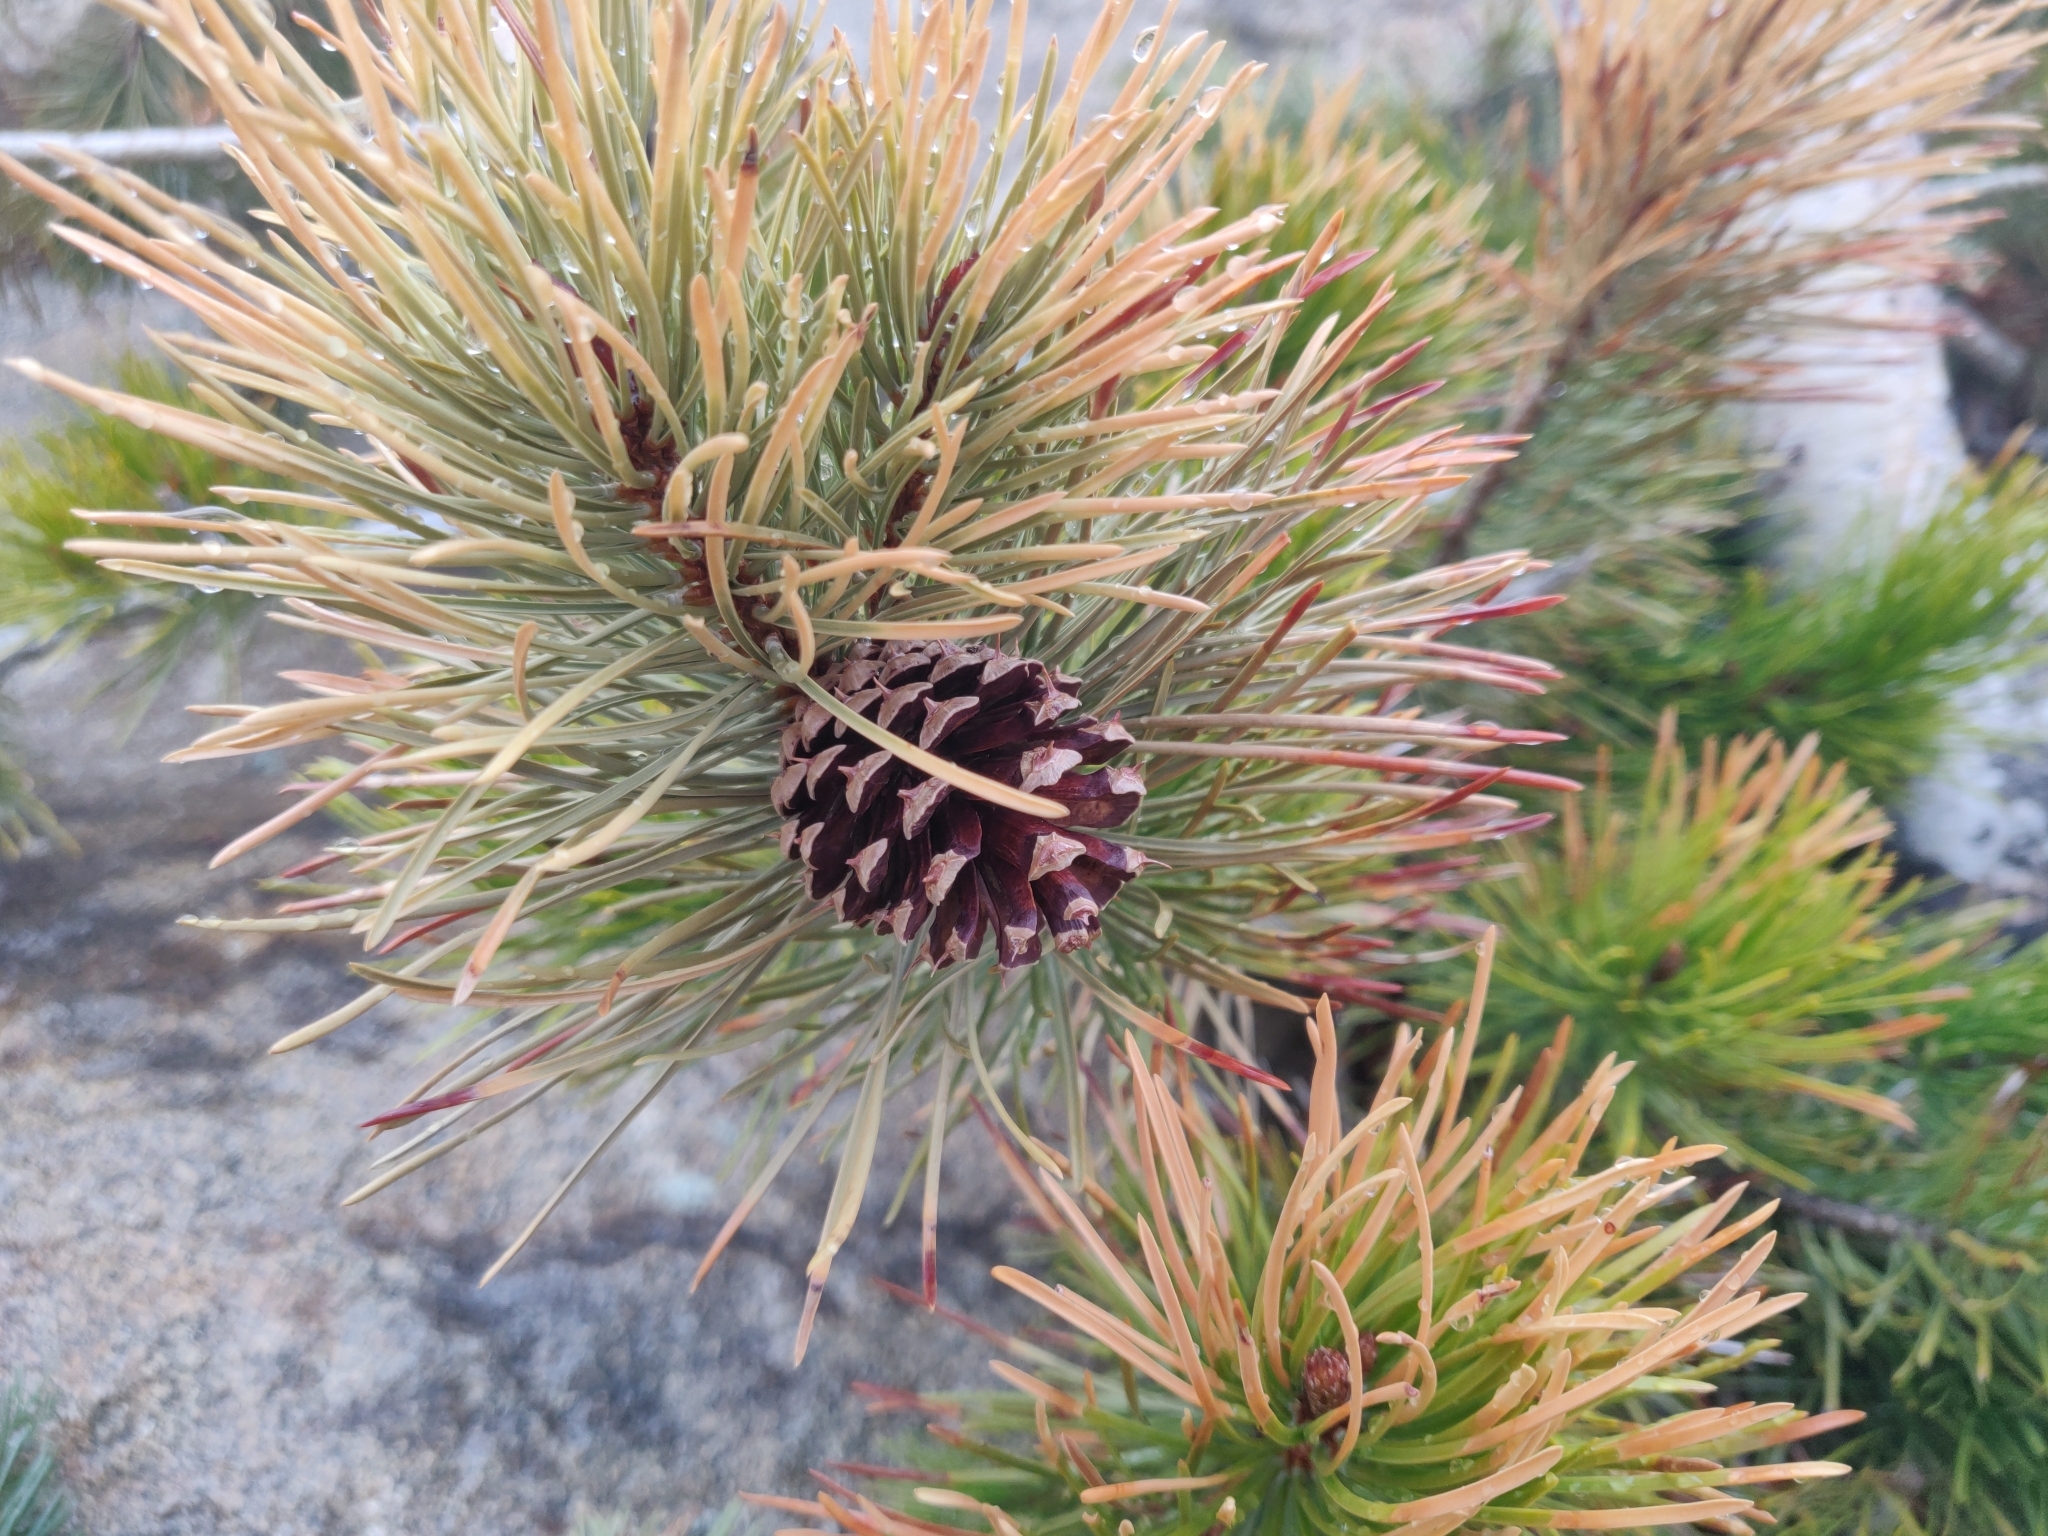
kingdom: Plantae
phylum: Tracheophyta
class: Pinopsida
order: Pinales
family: Pinaceae
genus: Pinus
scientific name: Pinus contorta
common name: Lodgepole pine
